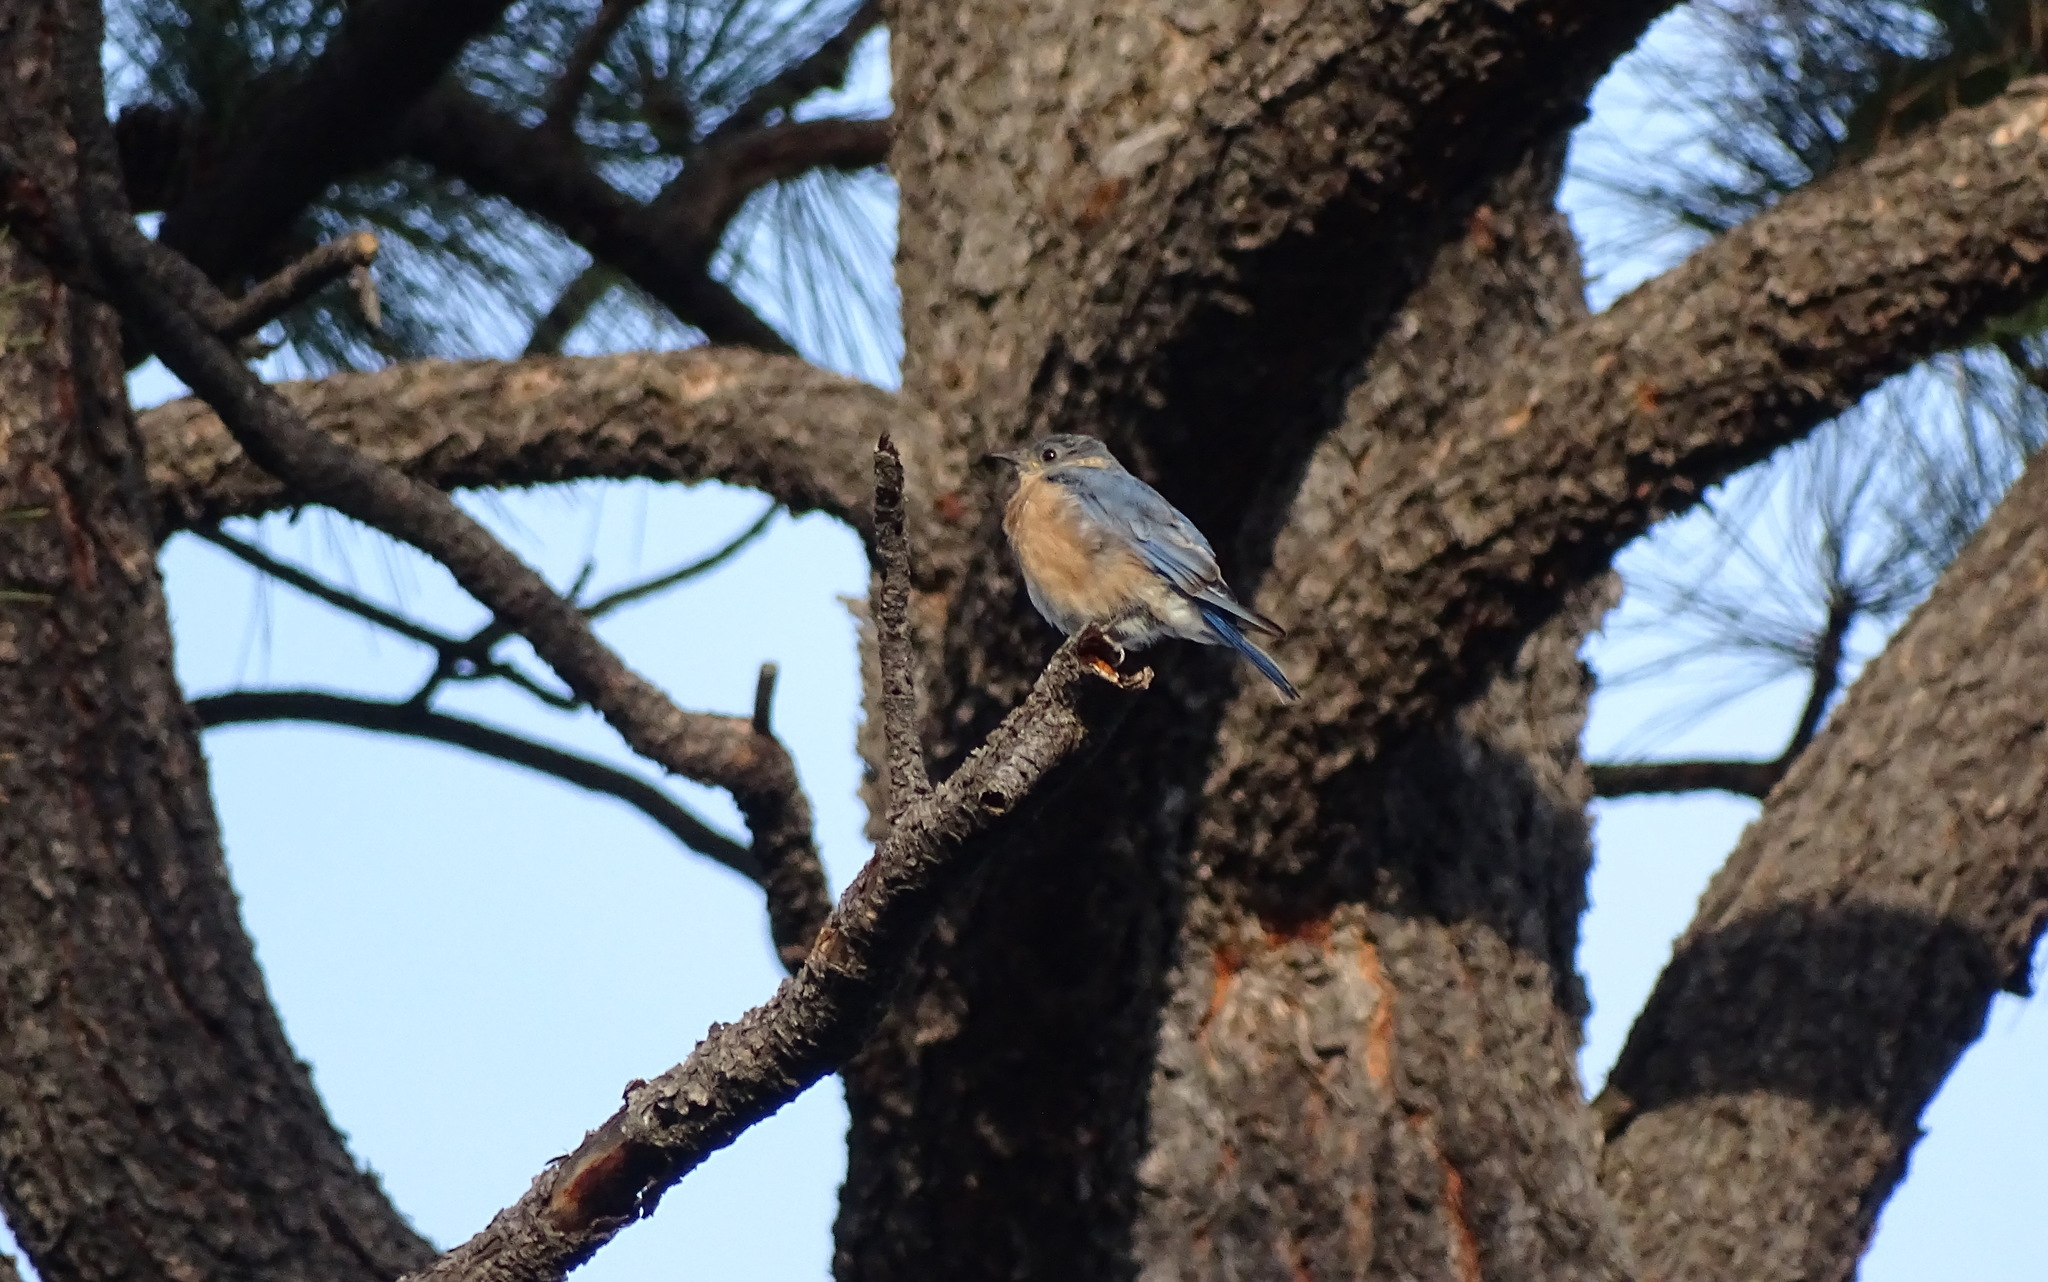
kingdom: Animalia
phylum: Chordata
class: Aves
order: Passeriformes
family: Turdidae
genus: Sialia
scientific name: Sialia sialis
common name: Eastern bluebird
